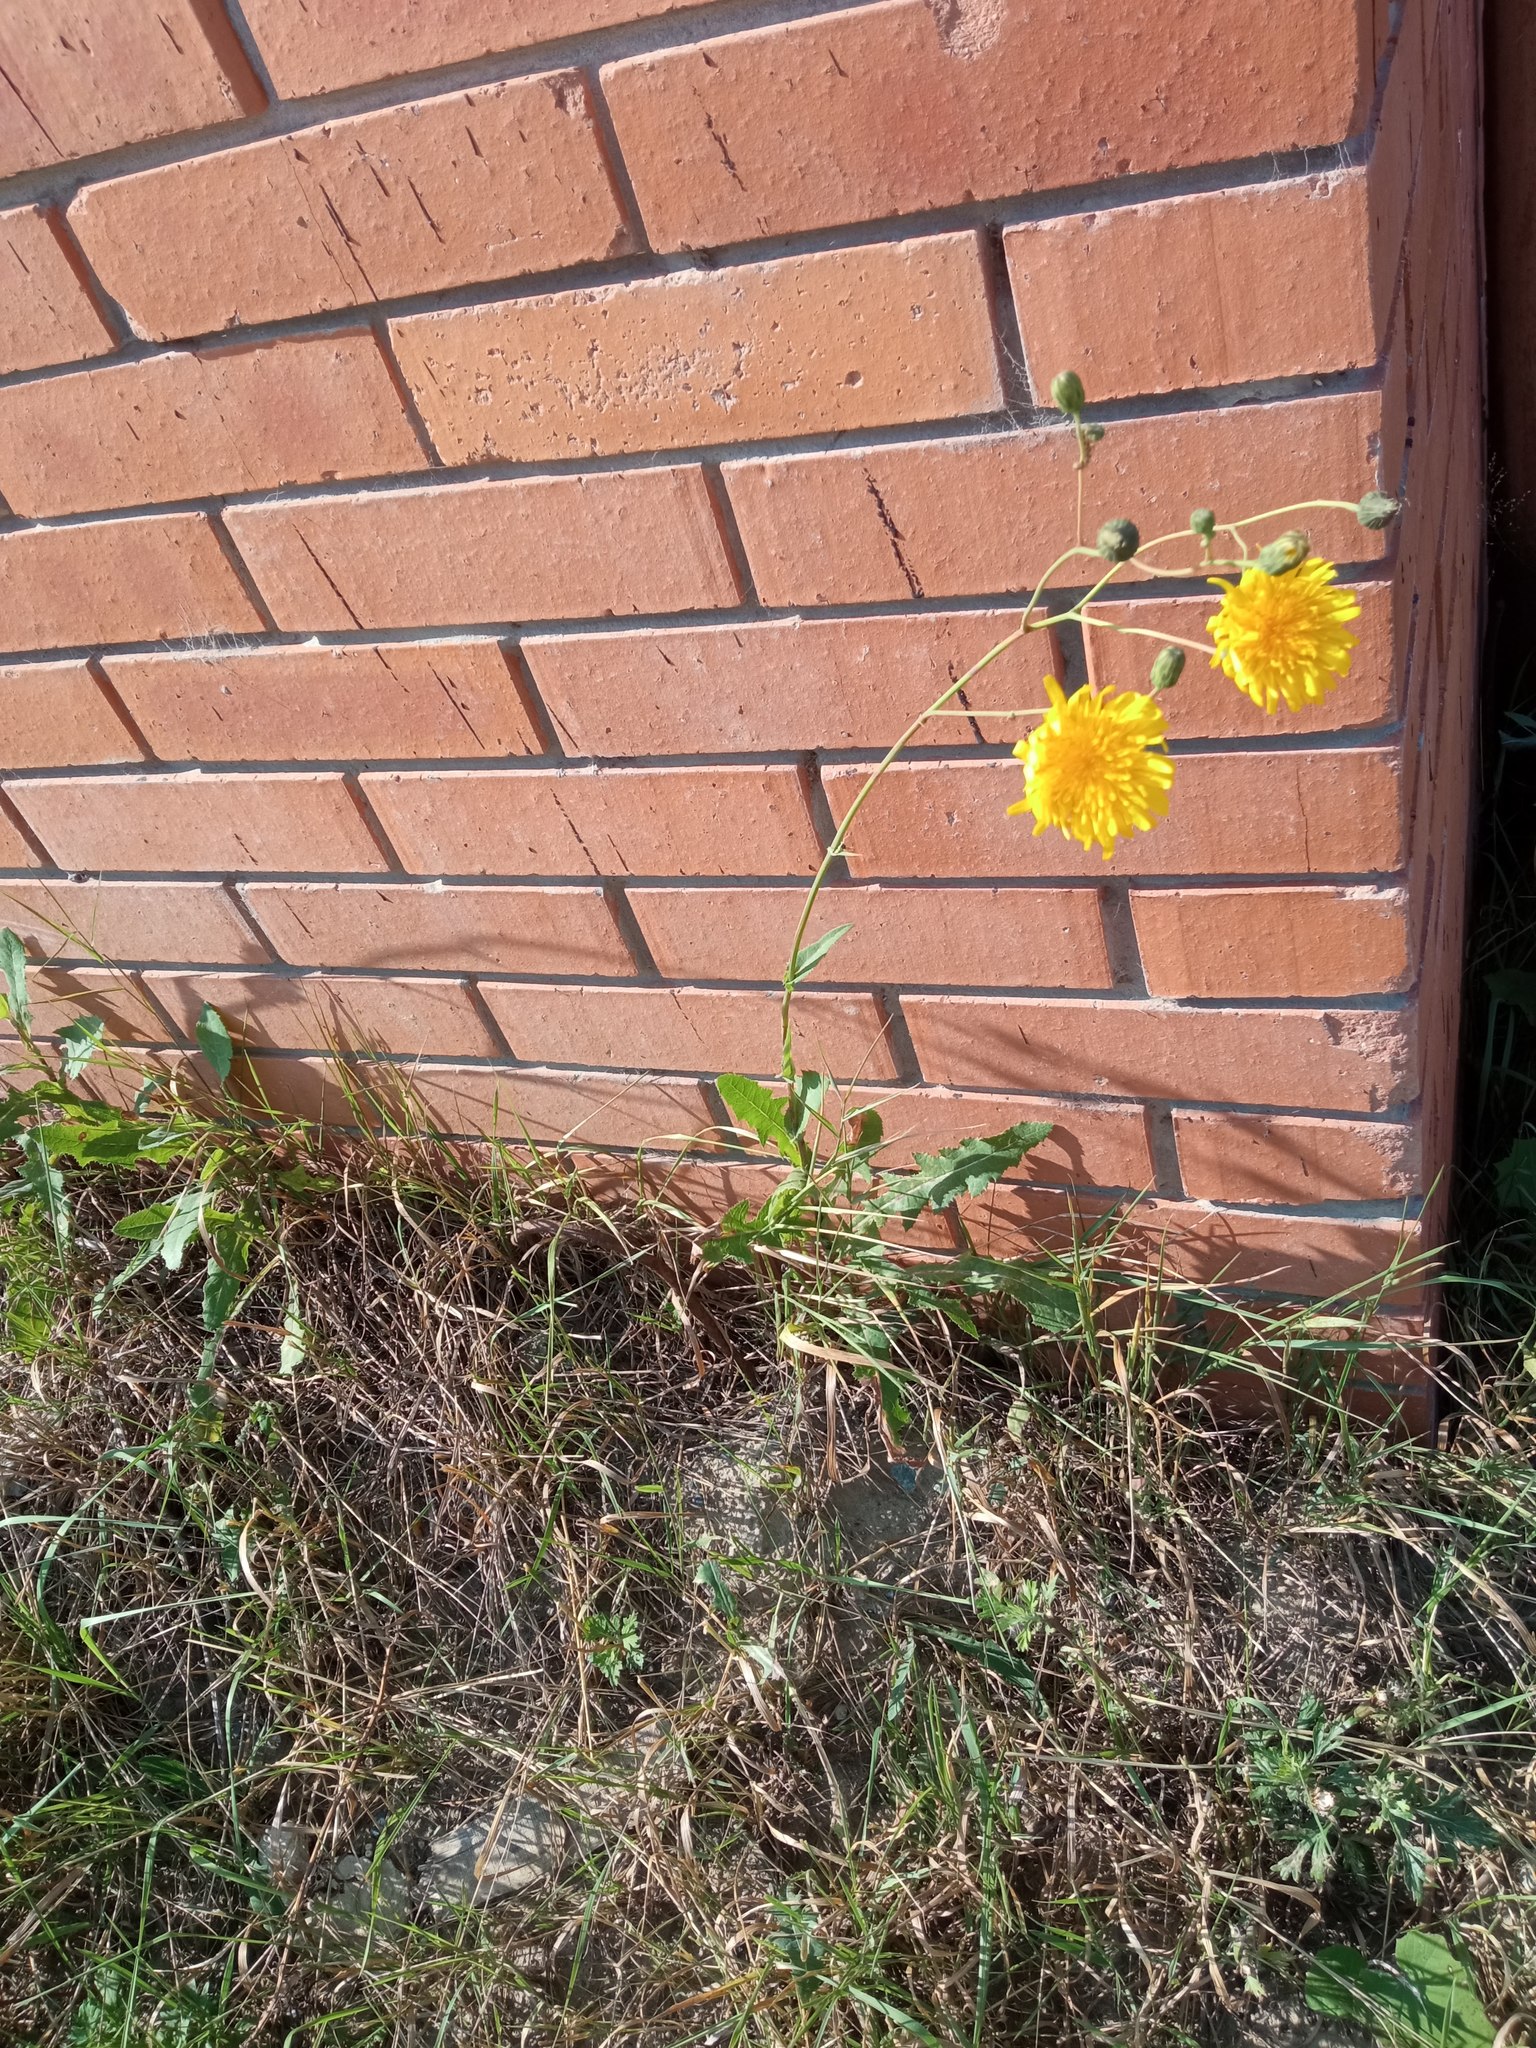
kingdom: Plantae
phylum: Tracheophyta
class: Magnoliopsida
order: Asterales
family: Asteraceae
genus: Sonchus
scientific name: Sonchus arvensis
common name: Perennial sow-thistle
